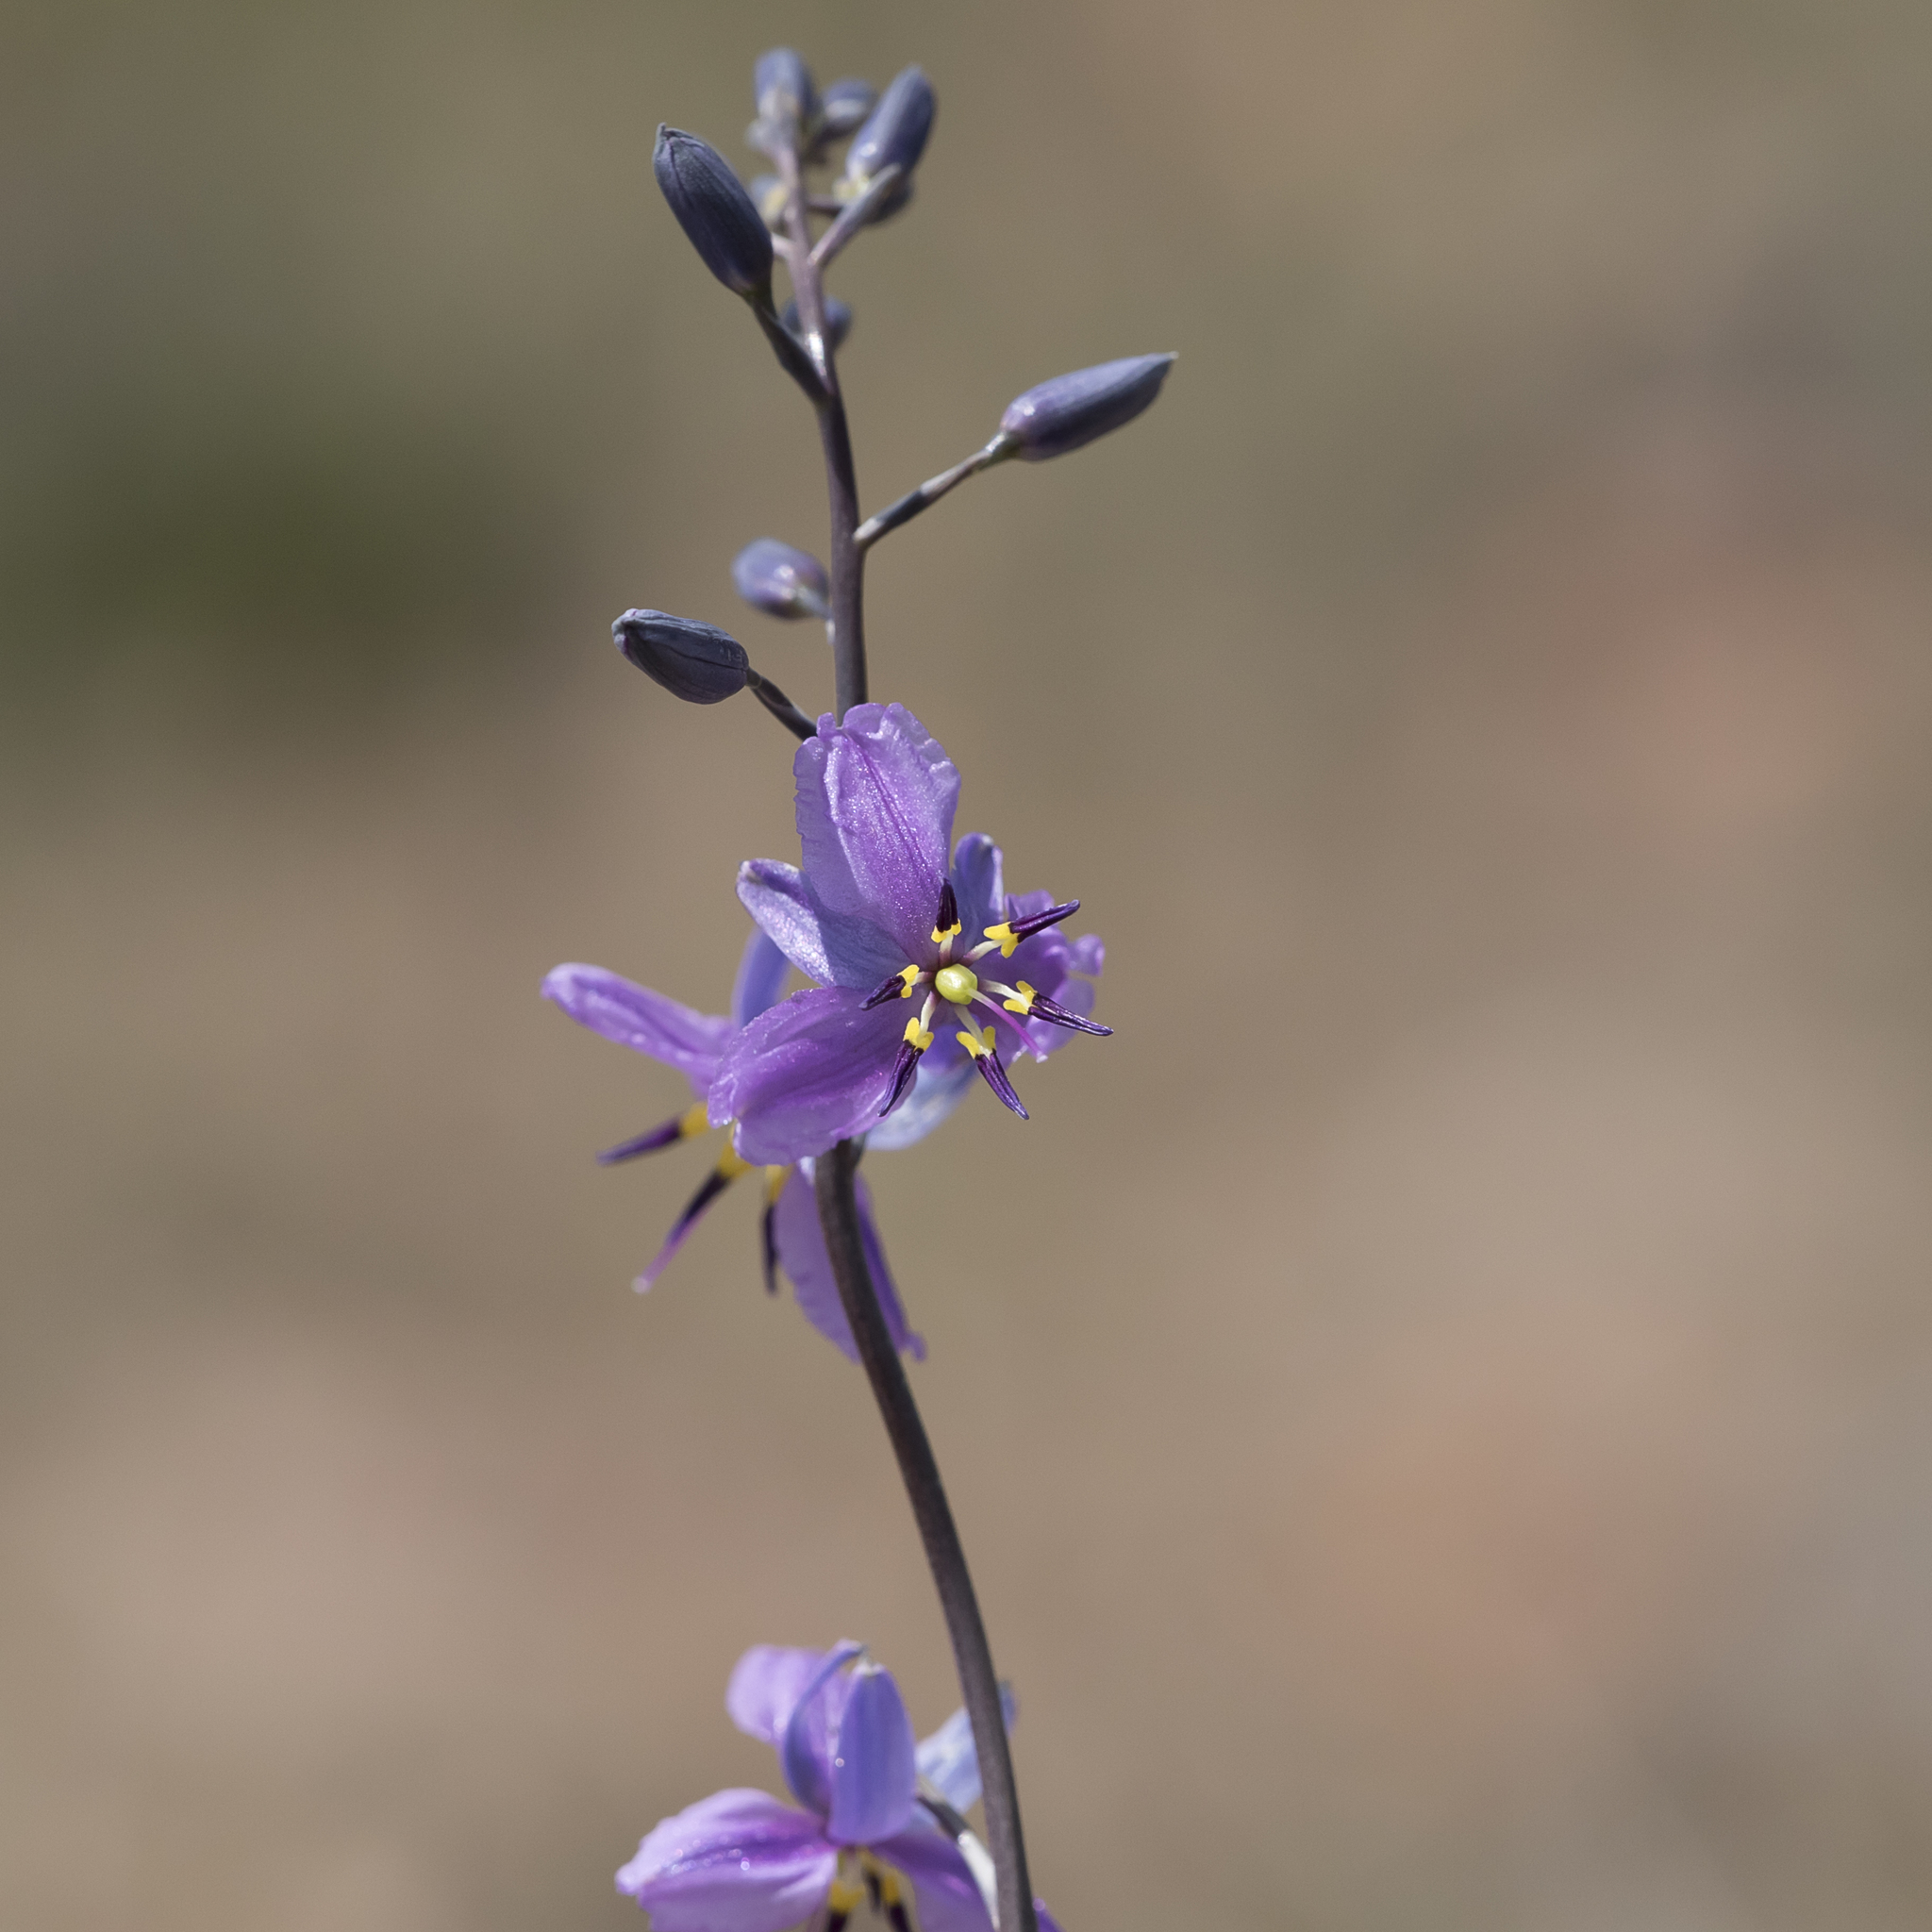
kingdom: Plantae
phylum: Tracheophyta
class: Liliopsida
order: Asparagales
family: Asparagaceae
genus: Arthropodium
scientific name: Arthropodium strictum
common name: Chocolate-lily
